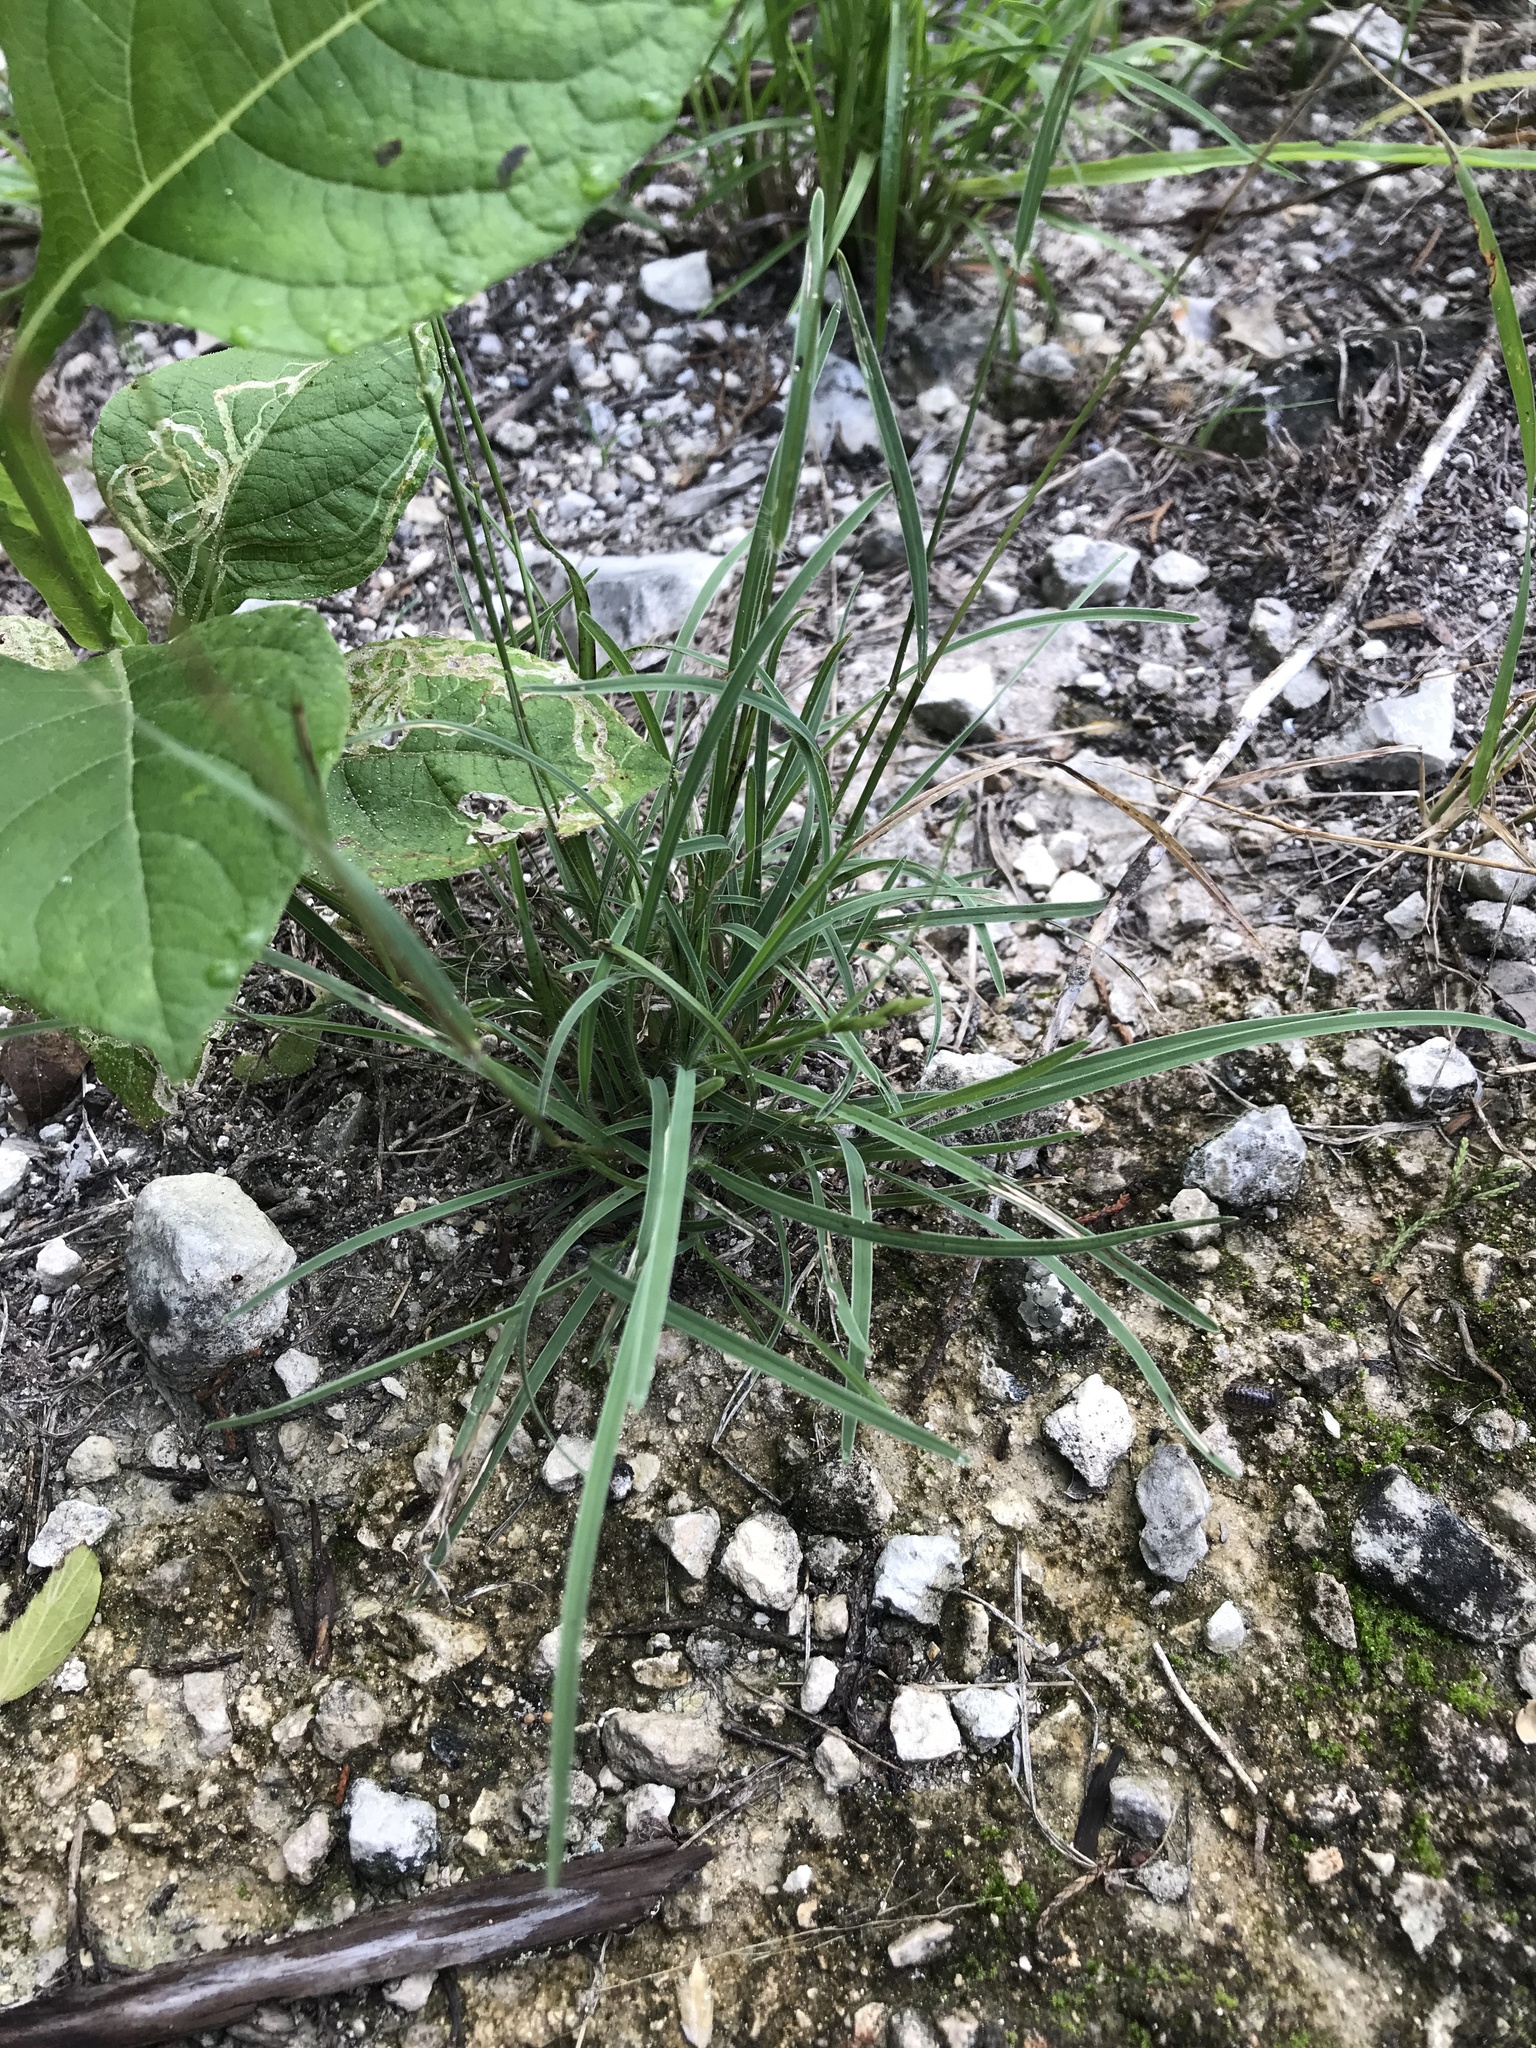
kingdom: Plantae
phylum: Tracheophyta
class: Liliopsida
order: Poales
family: Poaceae
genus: Erioneuron
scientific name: Erioneuron pilosum
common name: Hairy woolly grass
